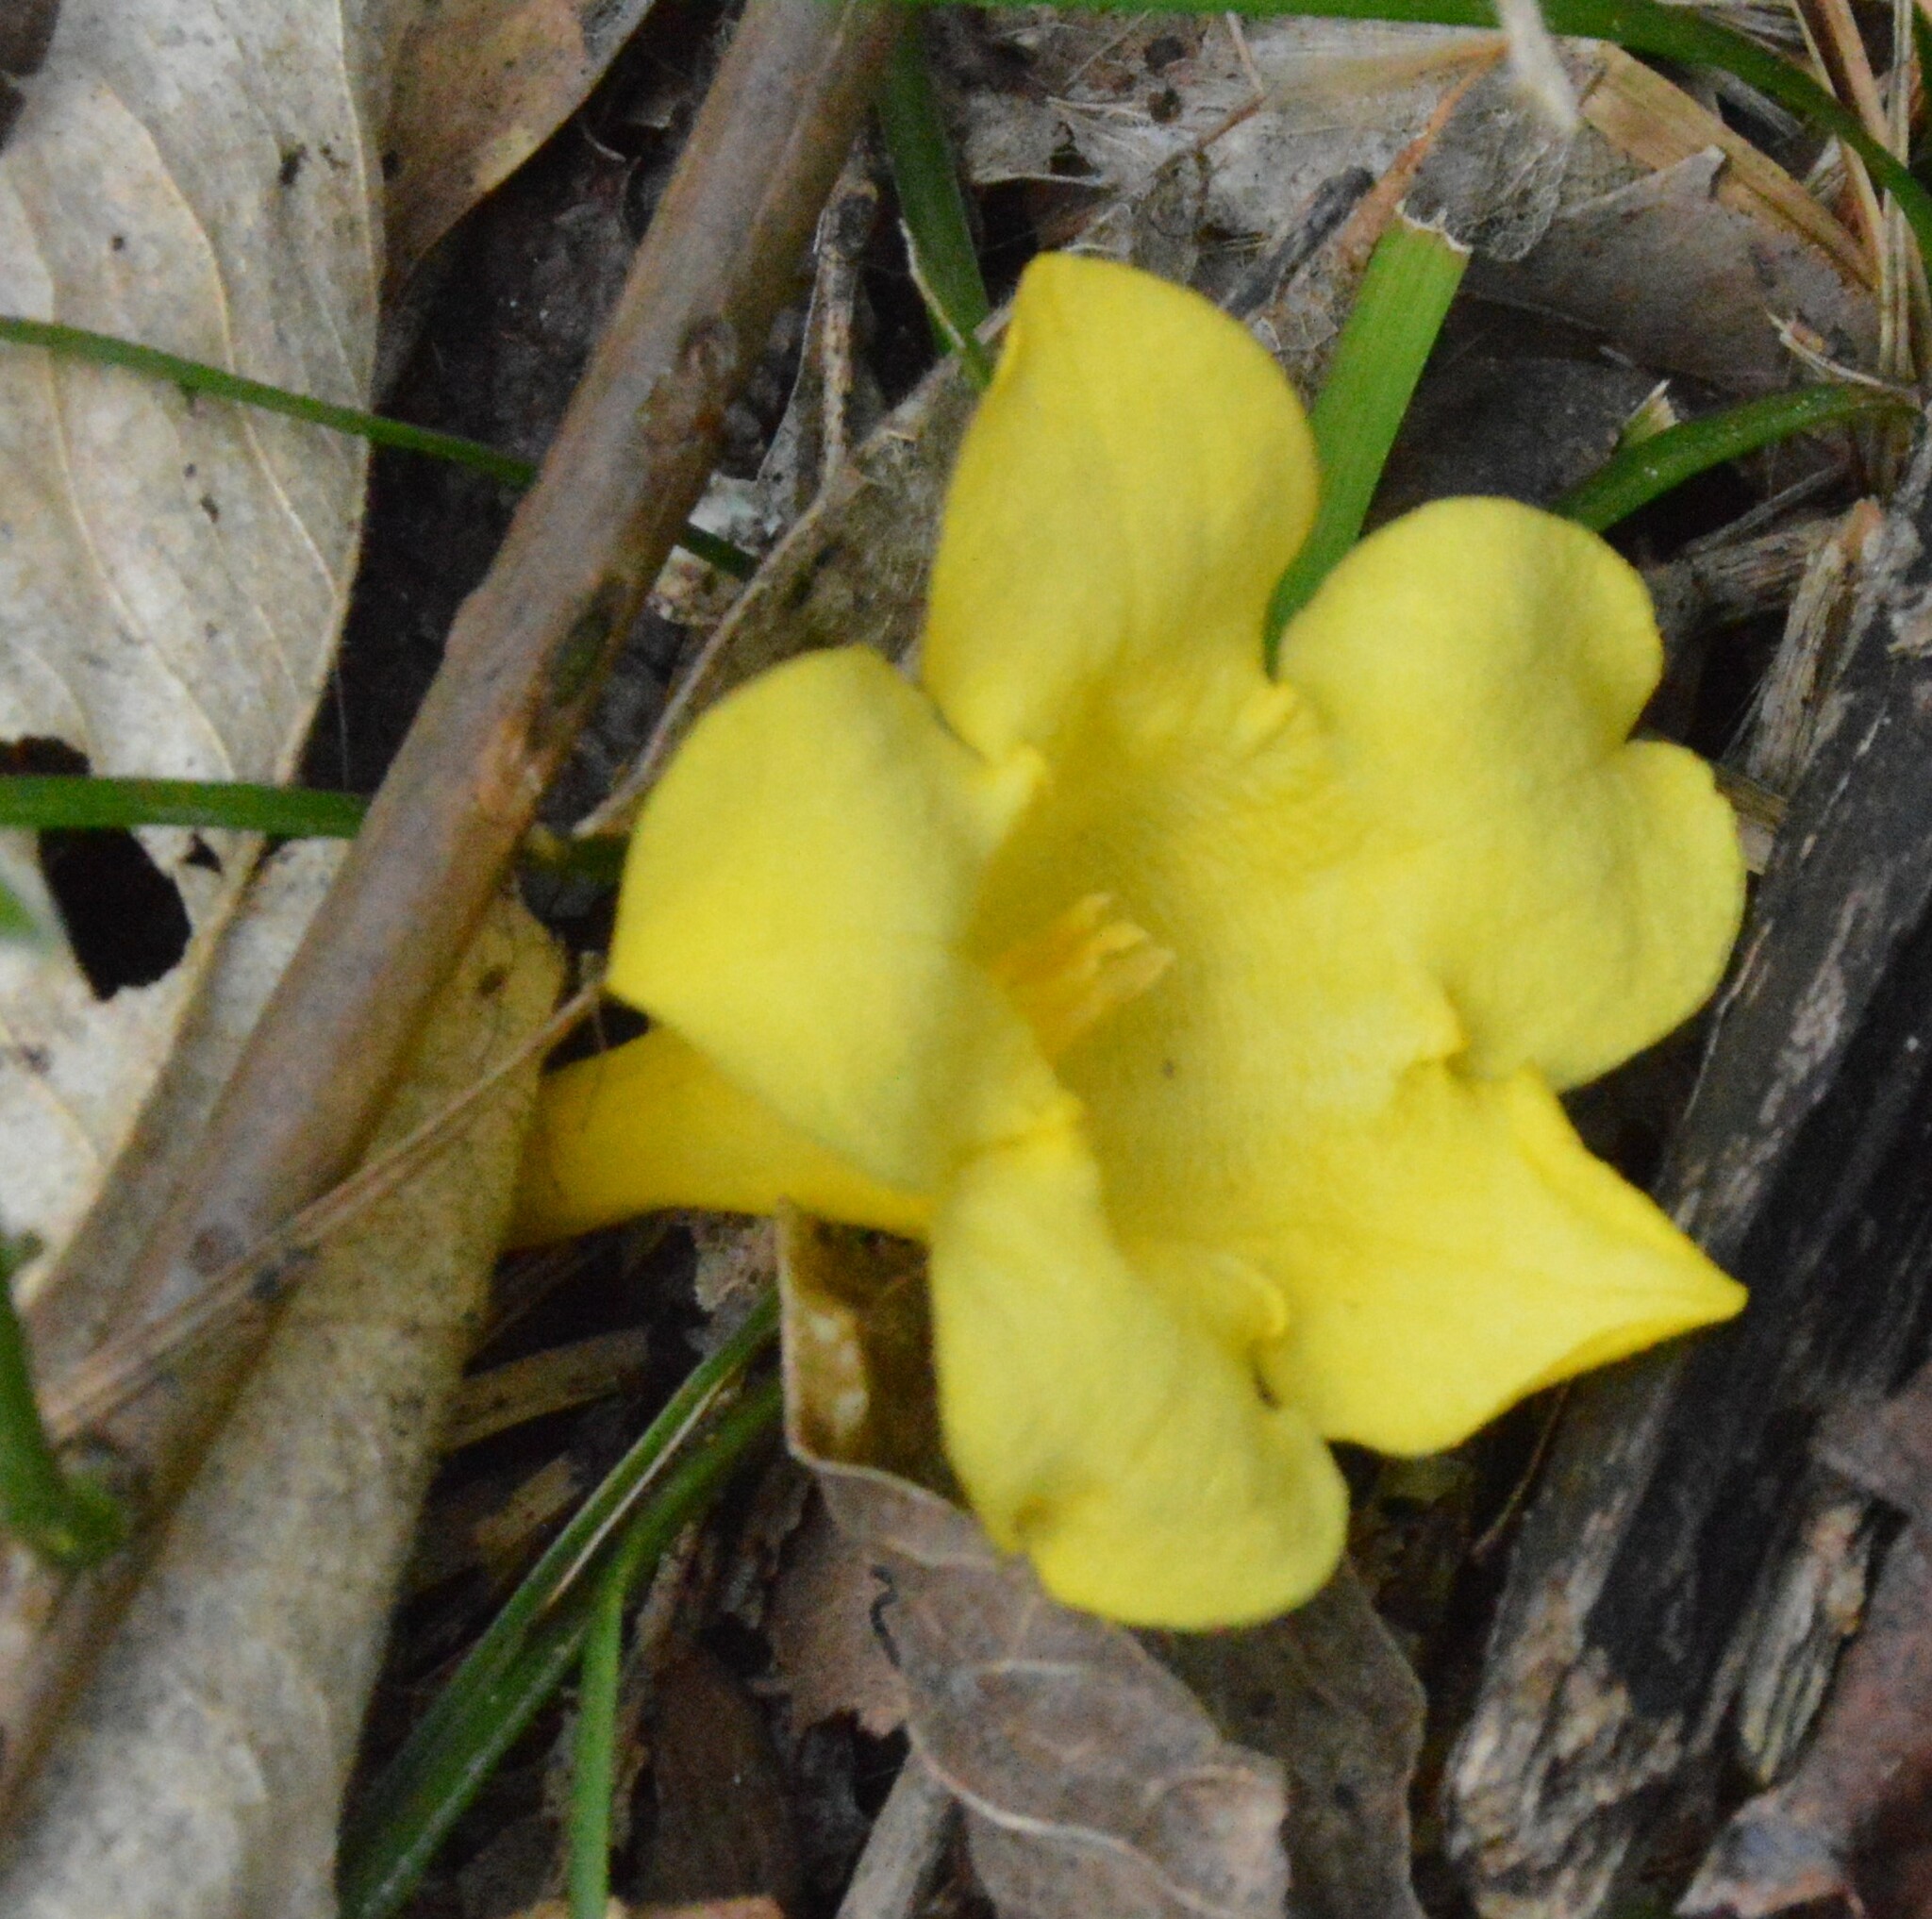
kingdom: Plantae
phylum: Tracheophyta
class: Magnoliopsida
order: Gentianales
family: Gelsemiaceae
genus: Gelsemium
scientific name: Gelsemium sempervirens
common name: Carolina-jasmine
